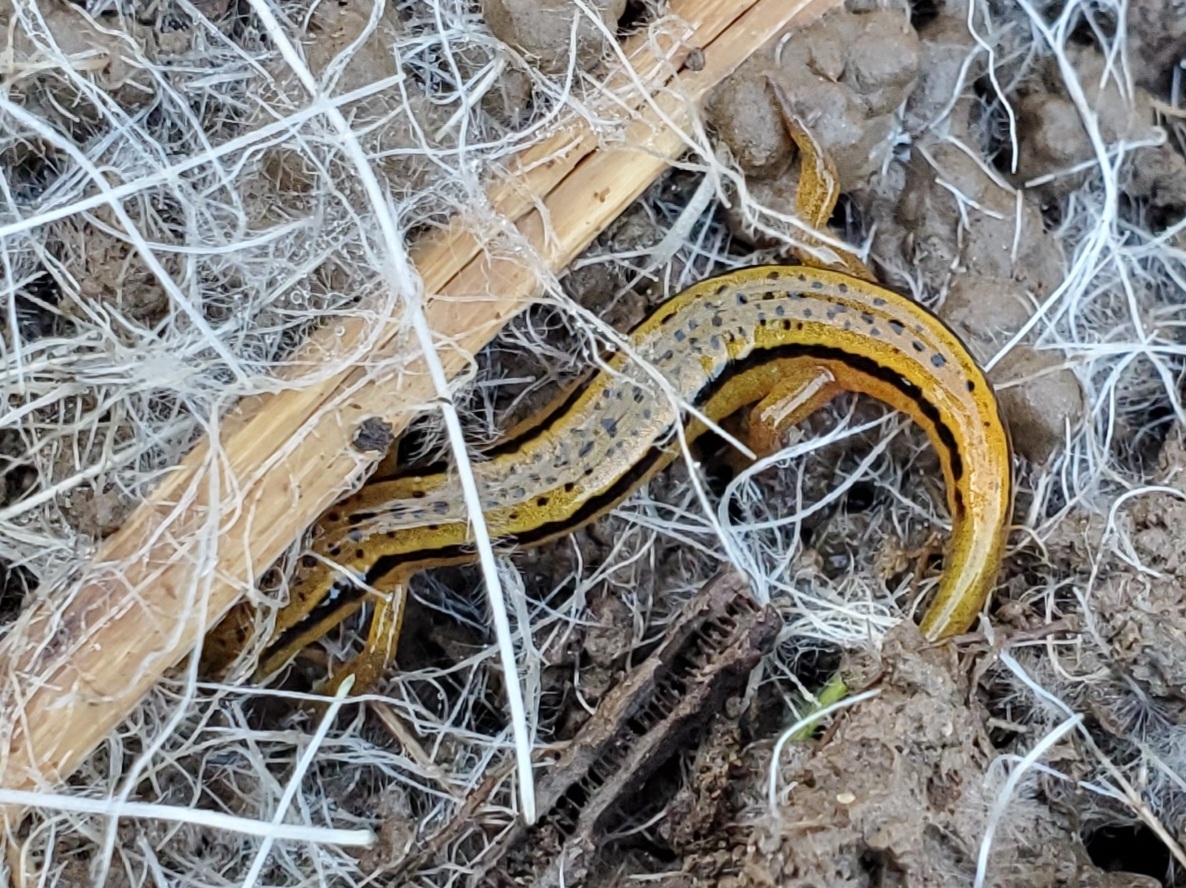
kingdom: Animalia
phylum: Chordata
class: Amphibia
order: Caudata
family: Plethodontidae
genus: Eurycea
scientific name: Eurycea wilderae
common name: Blue ridge two-lined salamander
